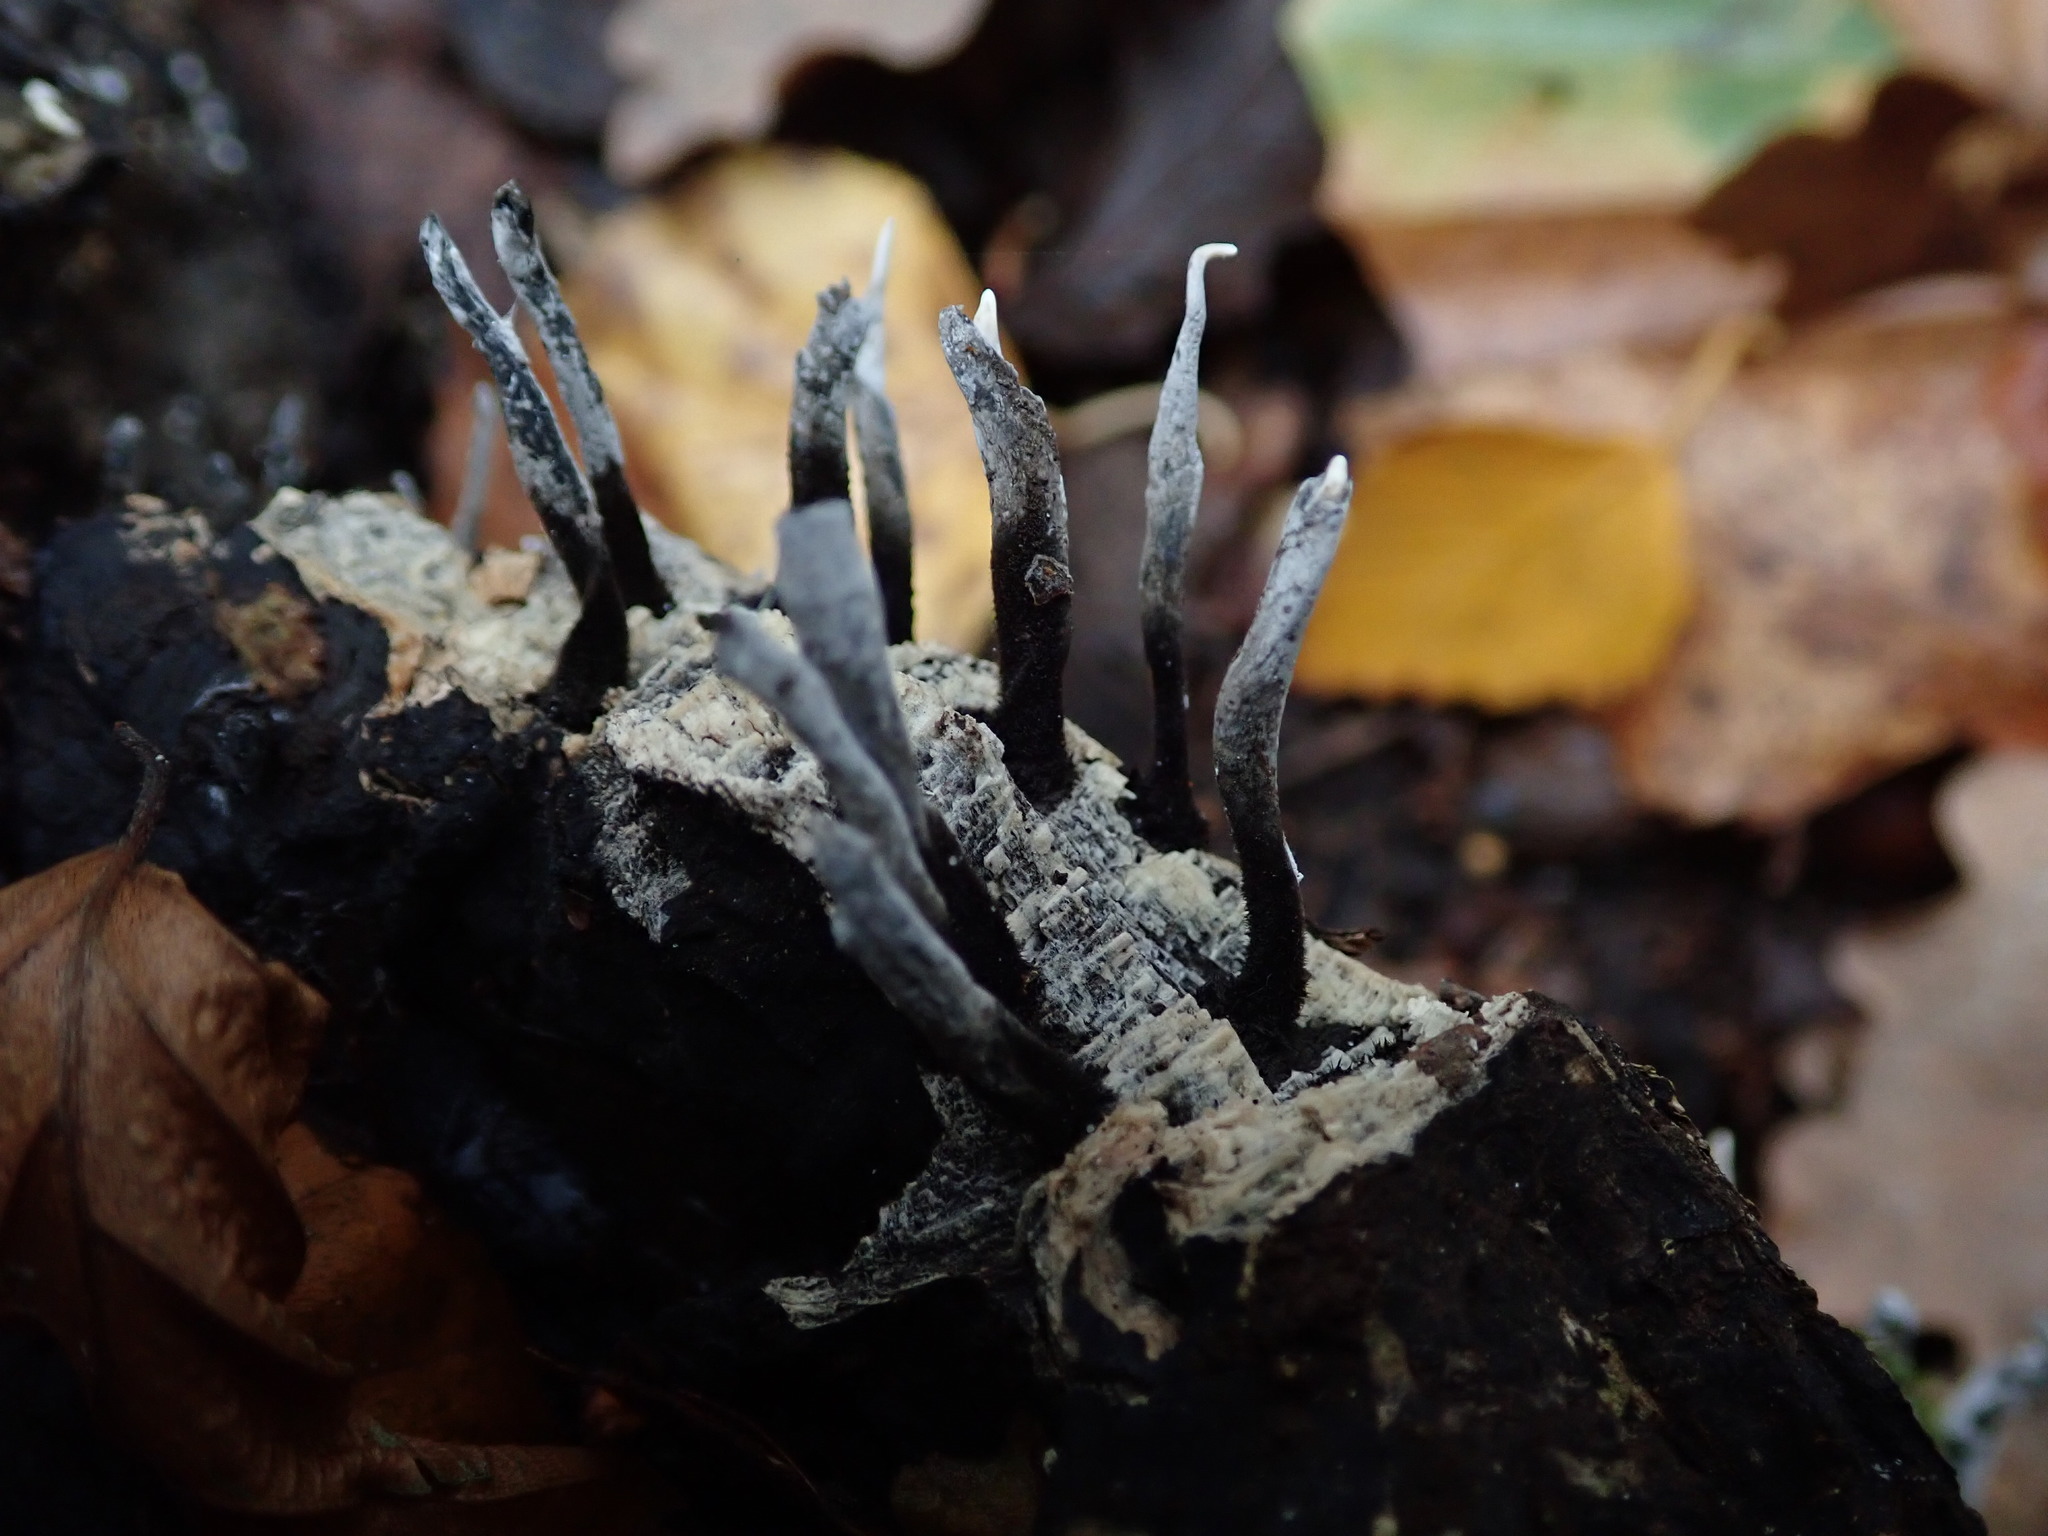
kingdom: Fungi
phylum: Ascomycota
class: Sordariomycetes
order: Xylariales
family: Xylariaceae
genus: Xylaria
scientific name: Xylaria hypoxylon
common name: Candle-snuff fungus
